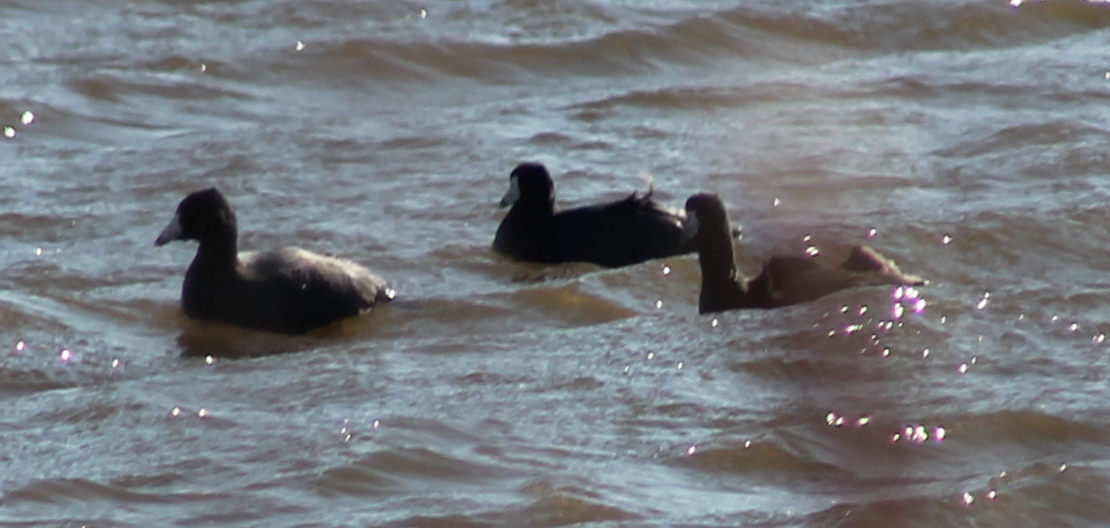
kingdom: Animalia
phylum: Chordata
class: Aves
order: Gruiformes
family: Rallidae
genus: Fulica
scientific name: Fulica americana
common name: American coot
